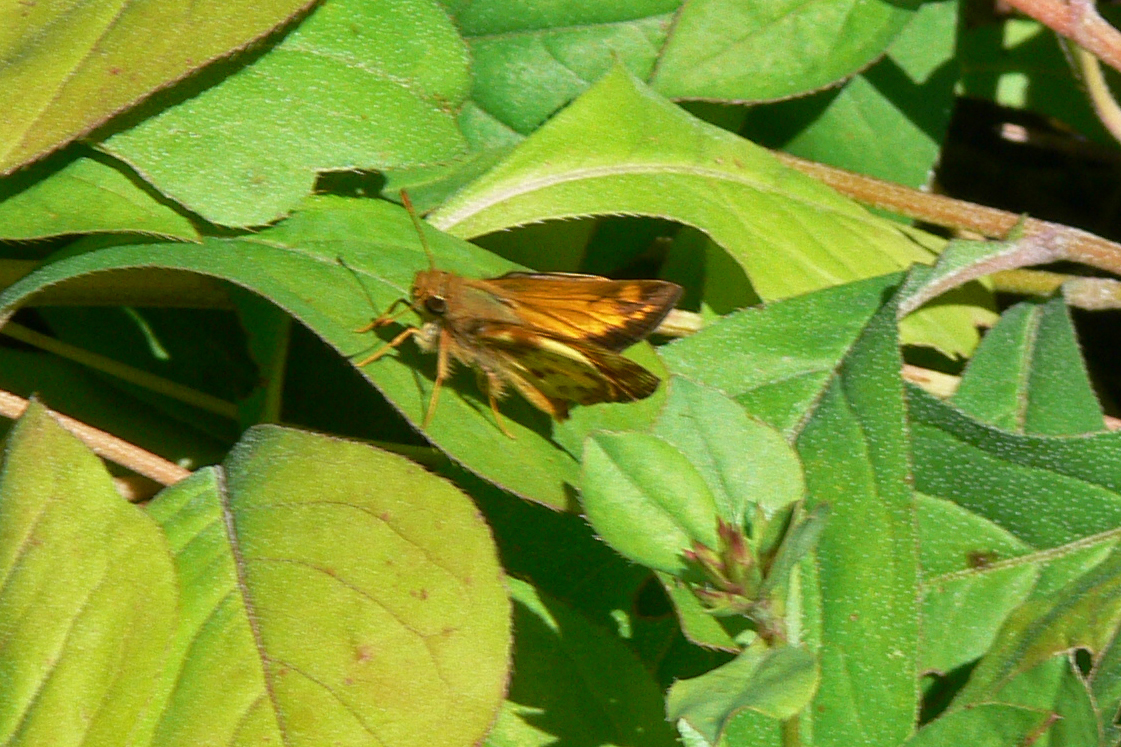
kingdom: Animalia
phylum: Arthropoda
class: Insecta
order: Lepidoptera
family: Hesperiidae
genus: Lon
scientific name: Lon zabulon
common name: Zabulon skipper
